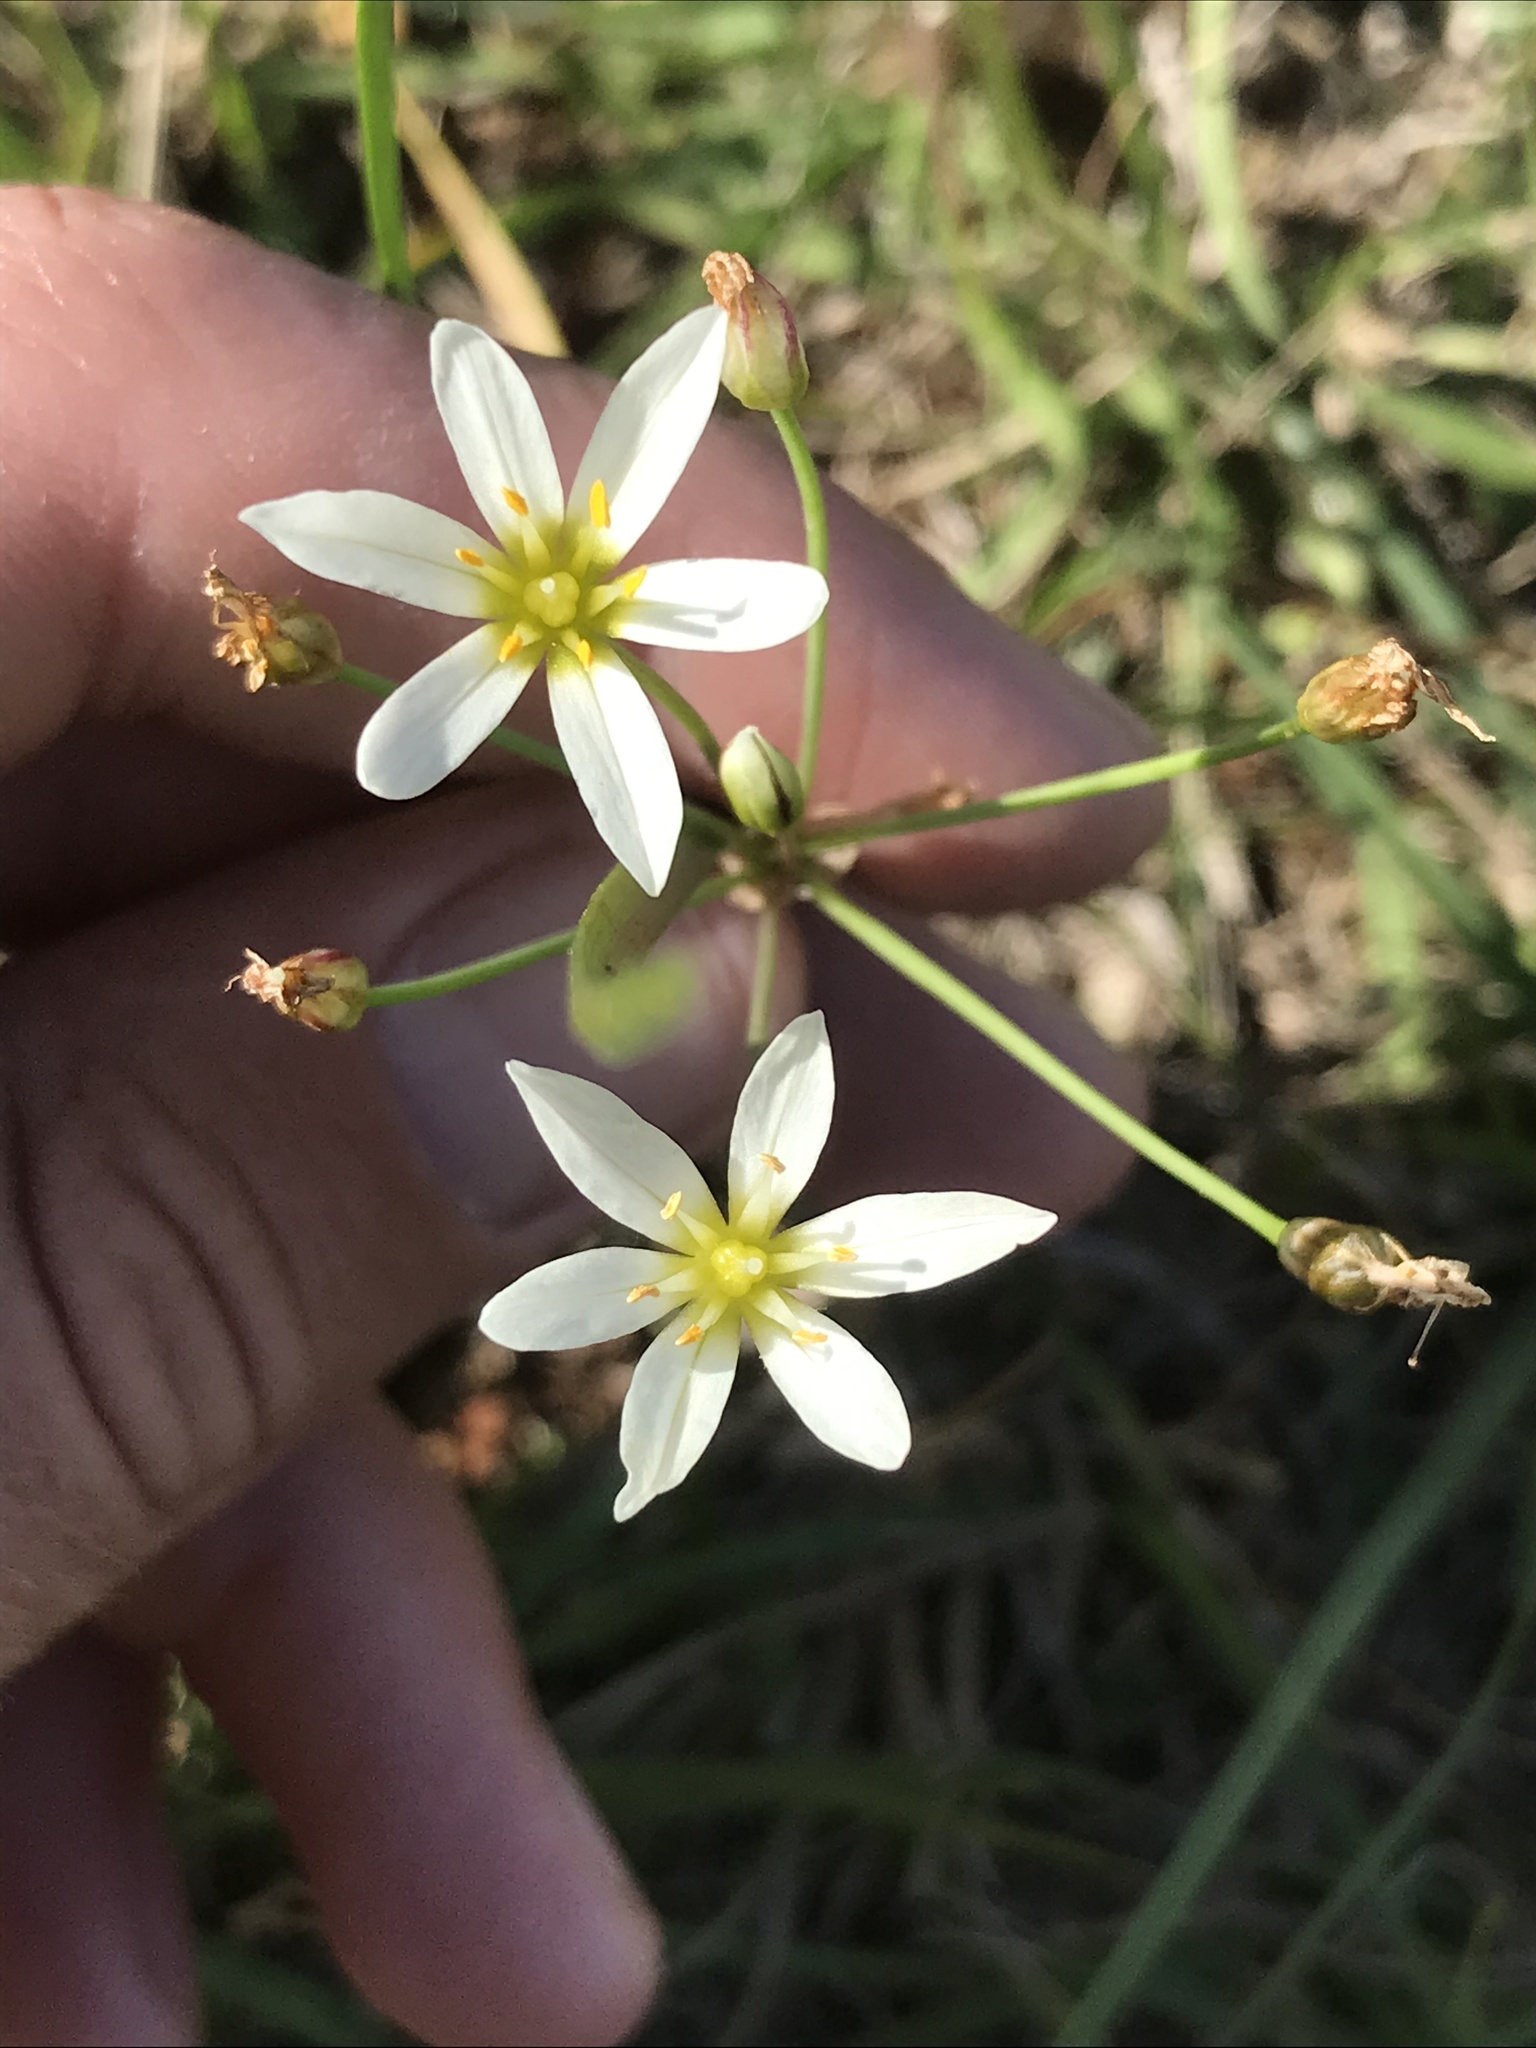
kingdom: Plantae
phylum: Tracheophyta
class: Liliopsida
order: Asparagales
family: Amaryllidaceae
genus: Nothoscordum
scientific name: Nothoscordum bivalve
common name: Crow-poison
